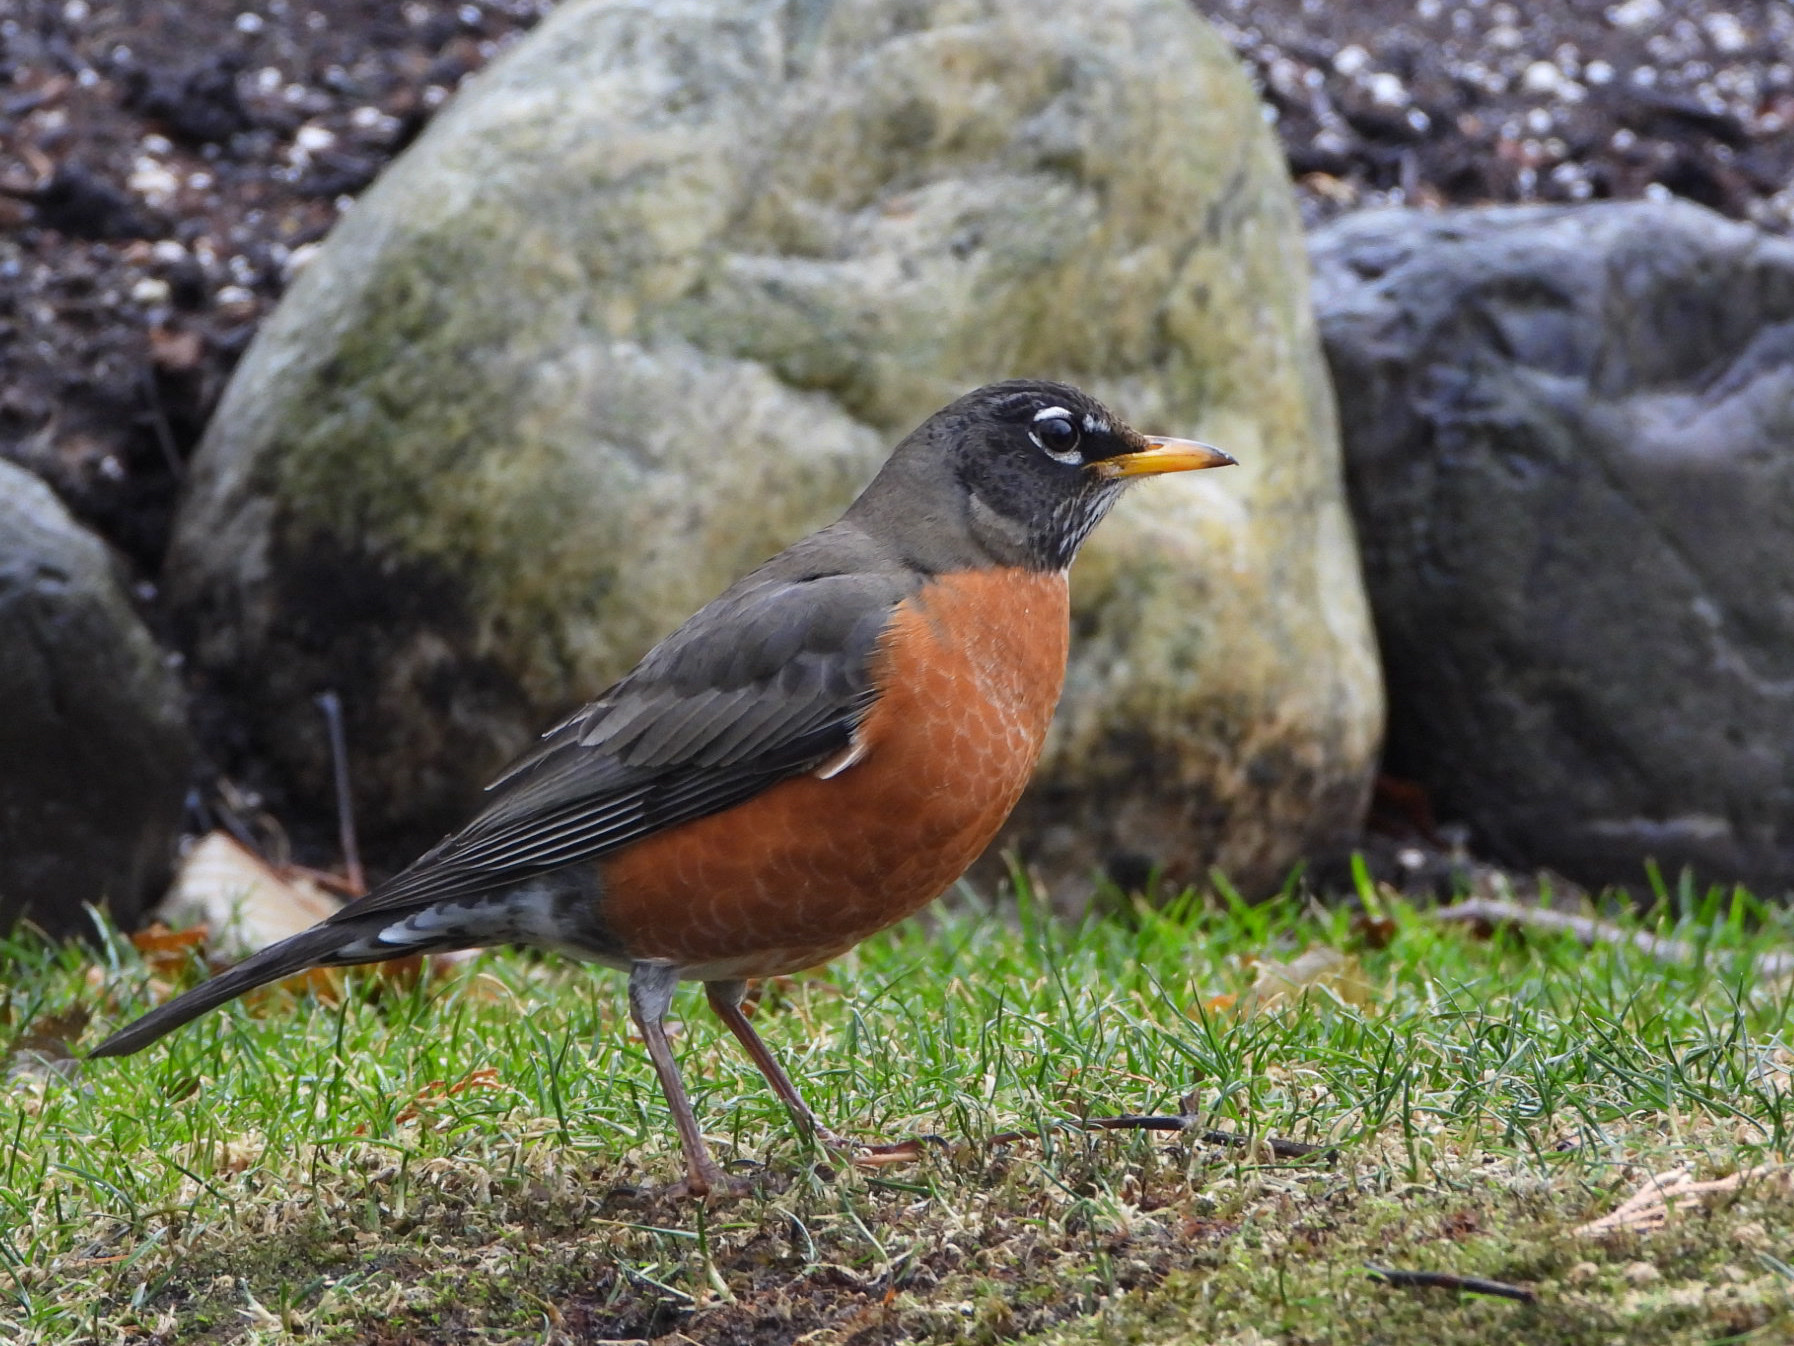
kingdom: Animalia
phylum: Chordata
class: Aves
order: Passeriformes
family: Turdidae
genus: Turdus
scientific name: Turdus migratorius
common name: American robin
